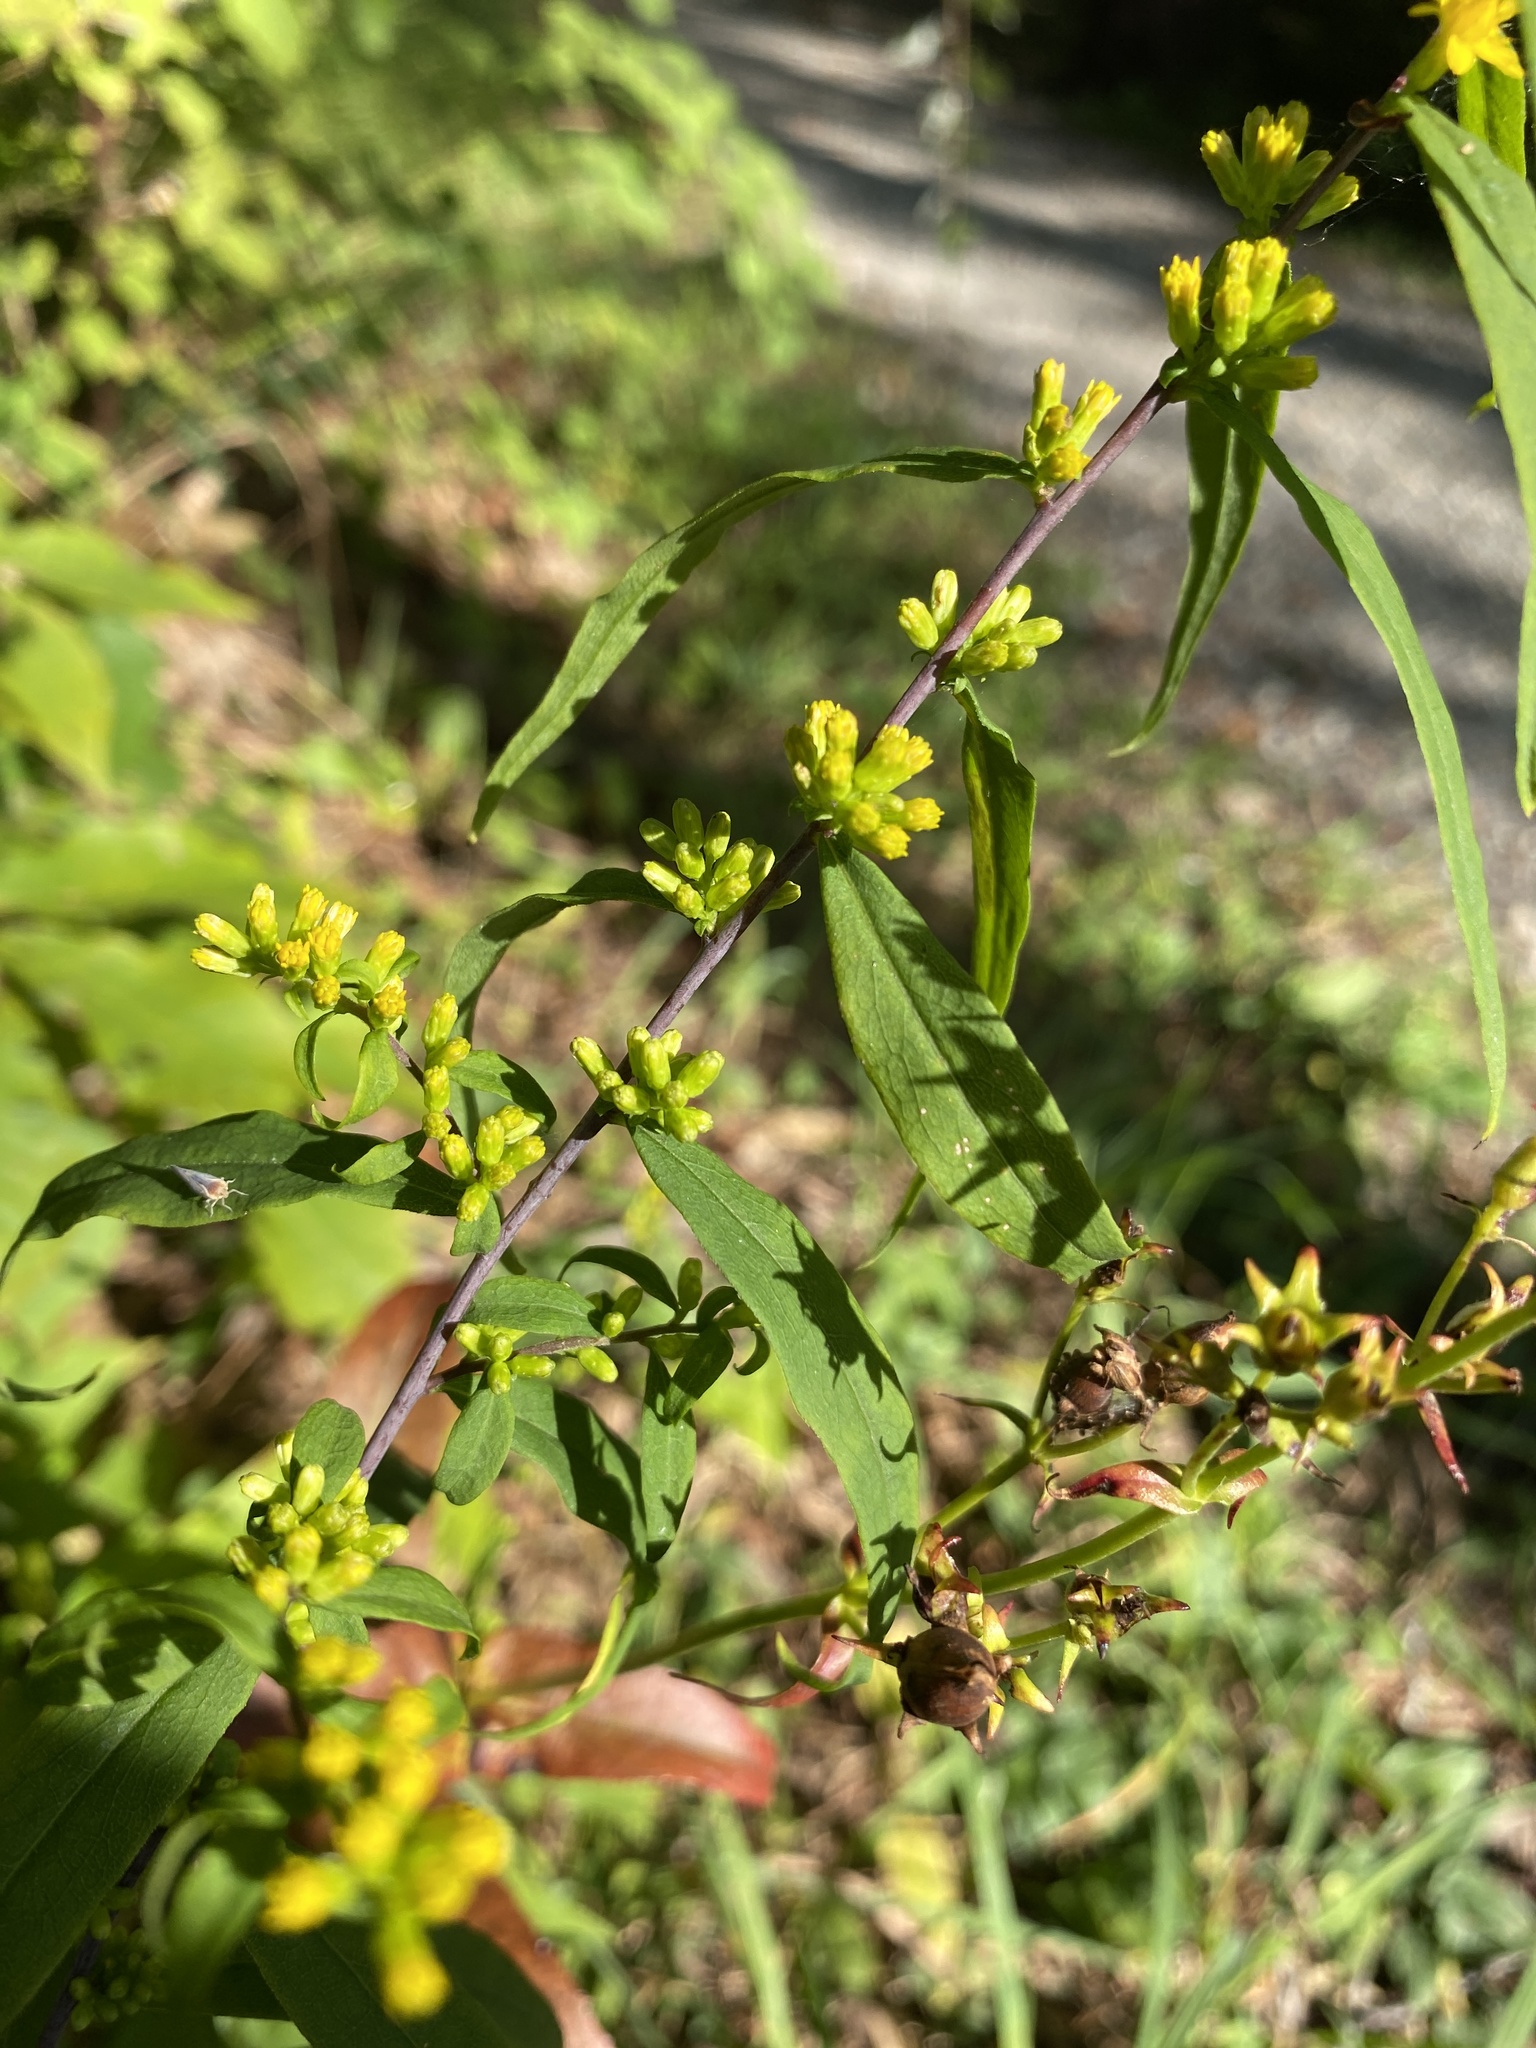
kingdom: Plantae
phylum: Tracheophyta
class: Magnoliopsida
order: Asterales
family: Asteraceae
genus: Solidago
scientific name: Solidago caesia
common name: Woodland goldenrod
